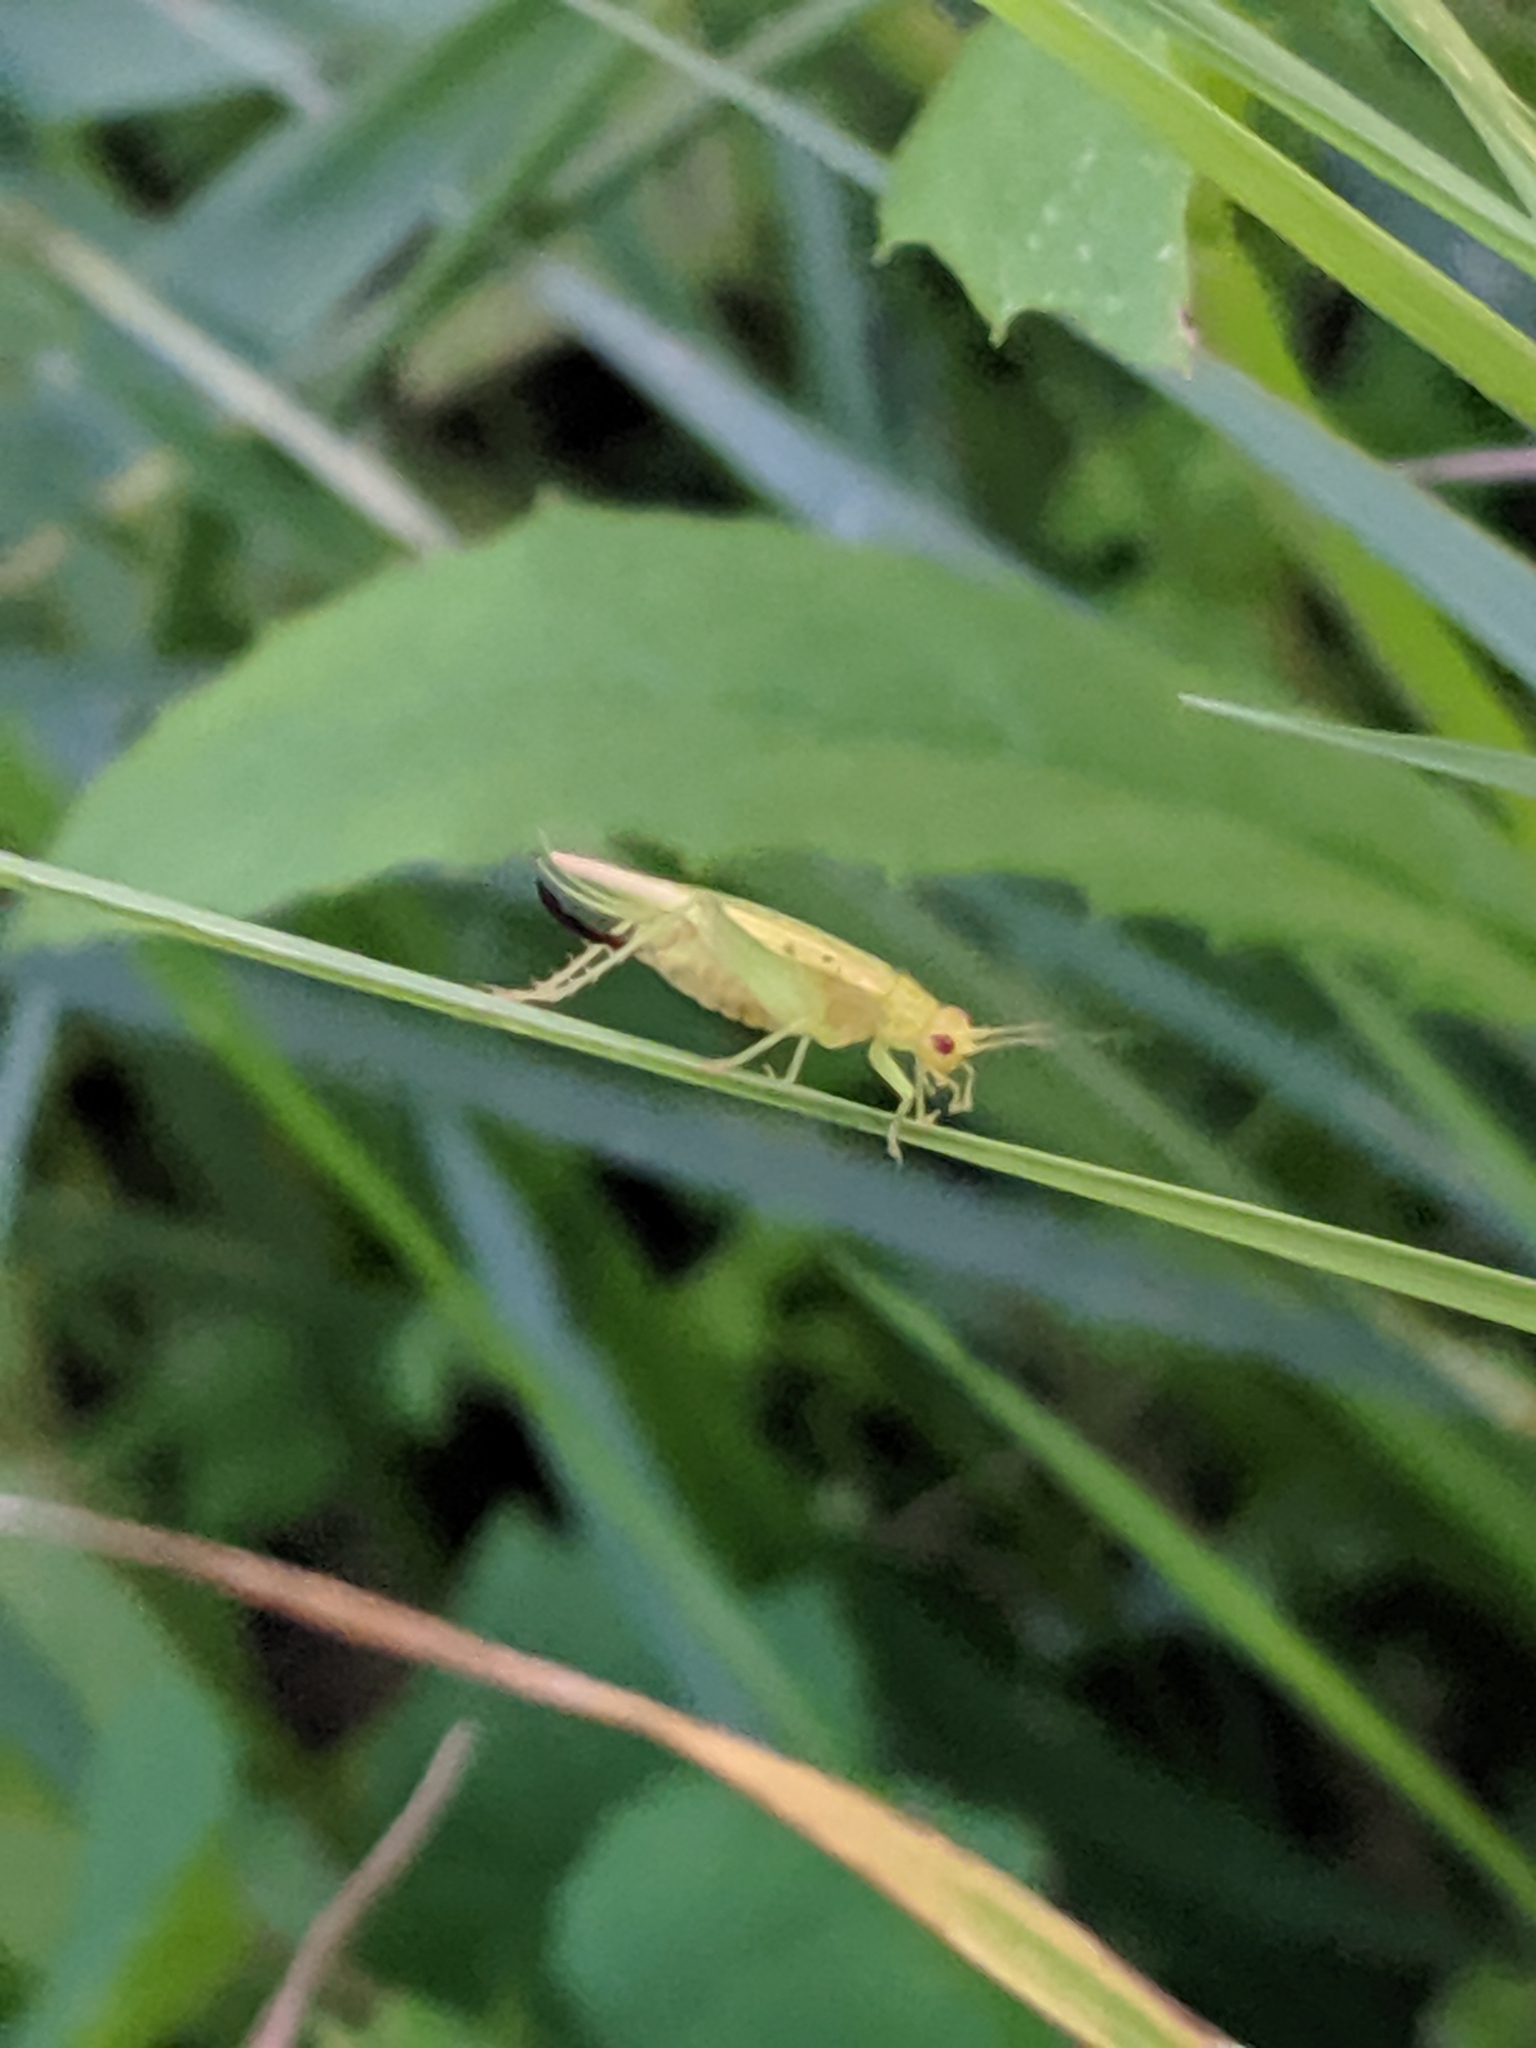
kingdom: Animalia
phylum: Arthropoda
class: Insecta
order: Orthoptera
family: Trigonidiidae
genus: Cyrtoxipha
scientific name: Cyrtoxipha columbiana
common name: Columbian trig
